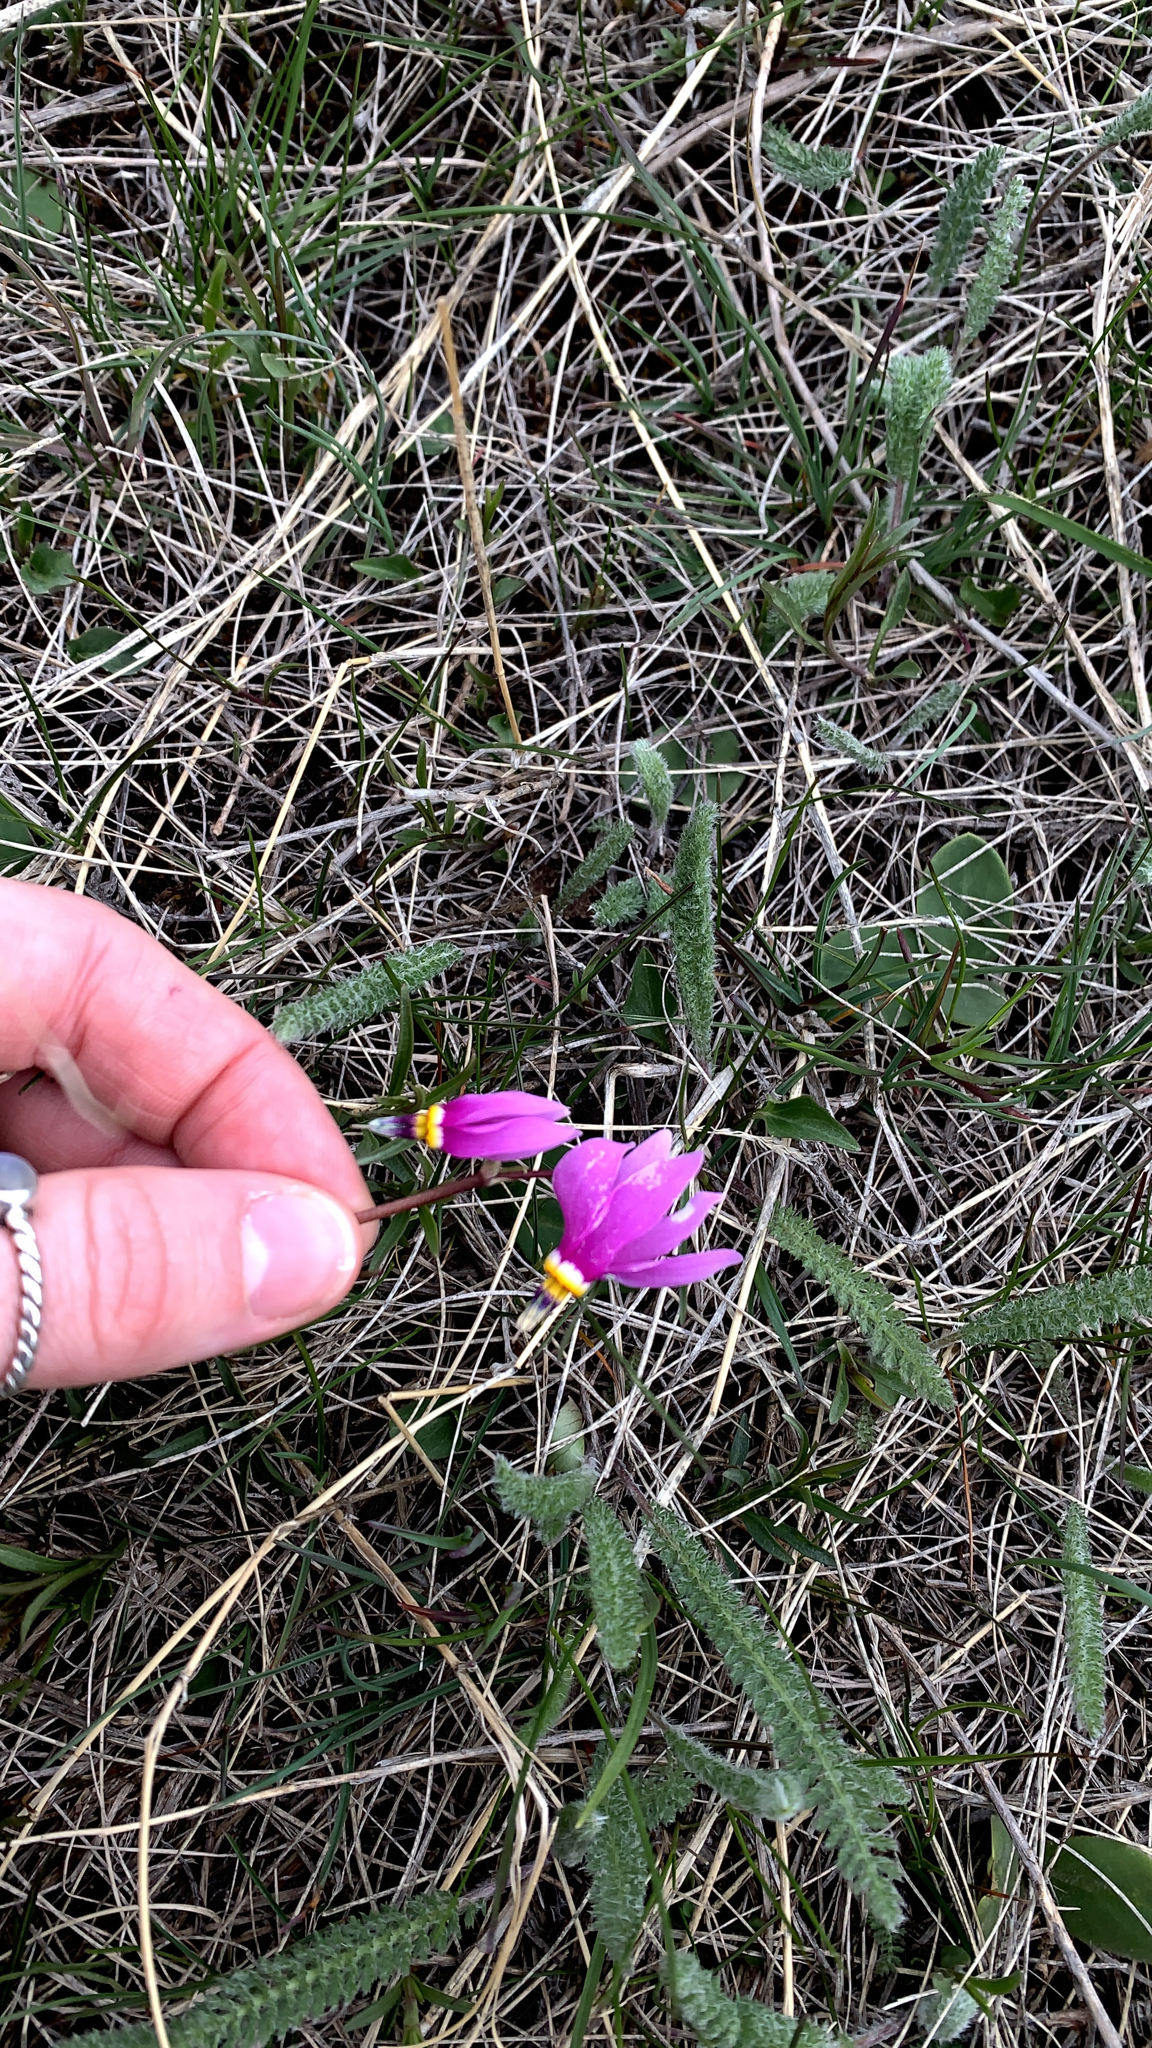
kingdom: Plantae
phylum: Tracheophyta
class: Magnoliopsida
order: Ericales
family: Primulaceae
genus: Dodecatheon
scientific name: Dodecatheon conjugens
